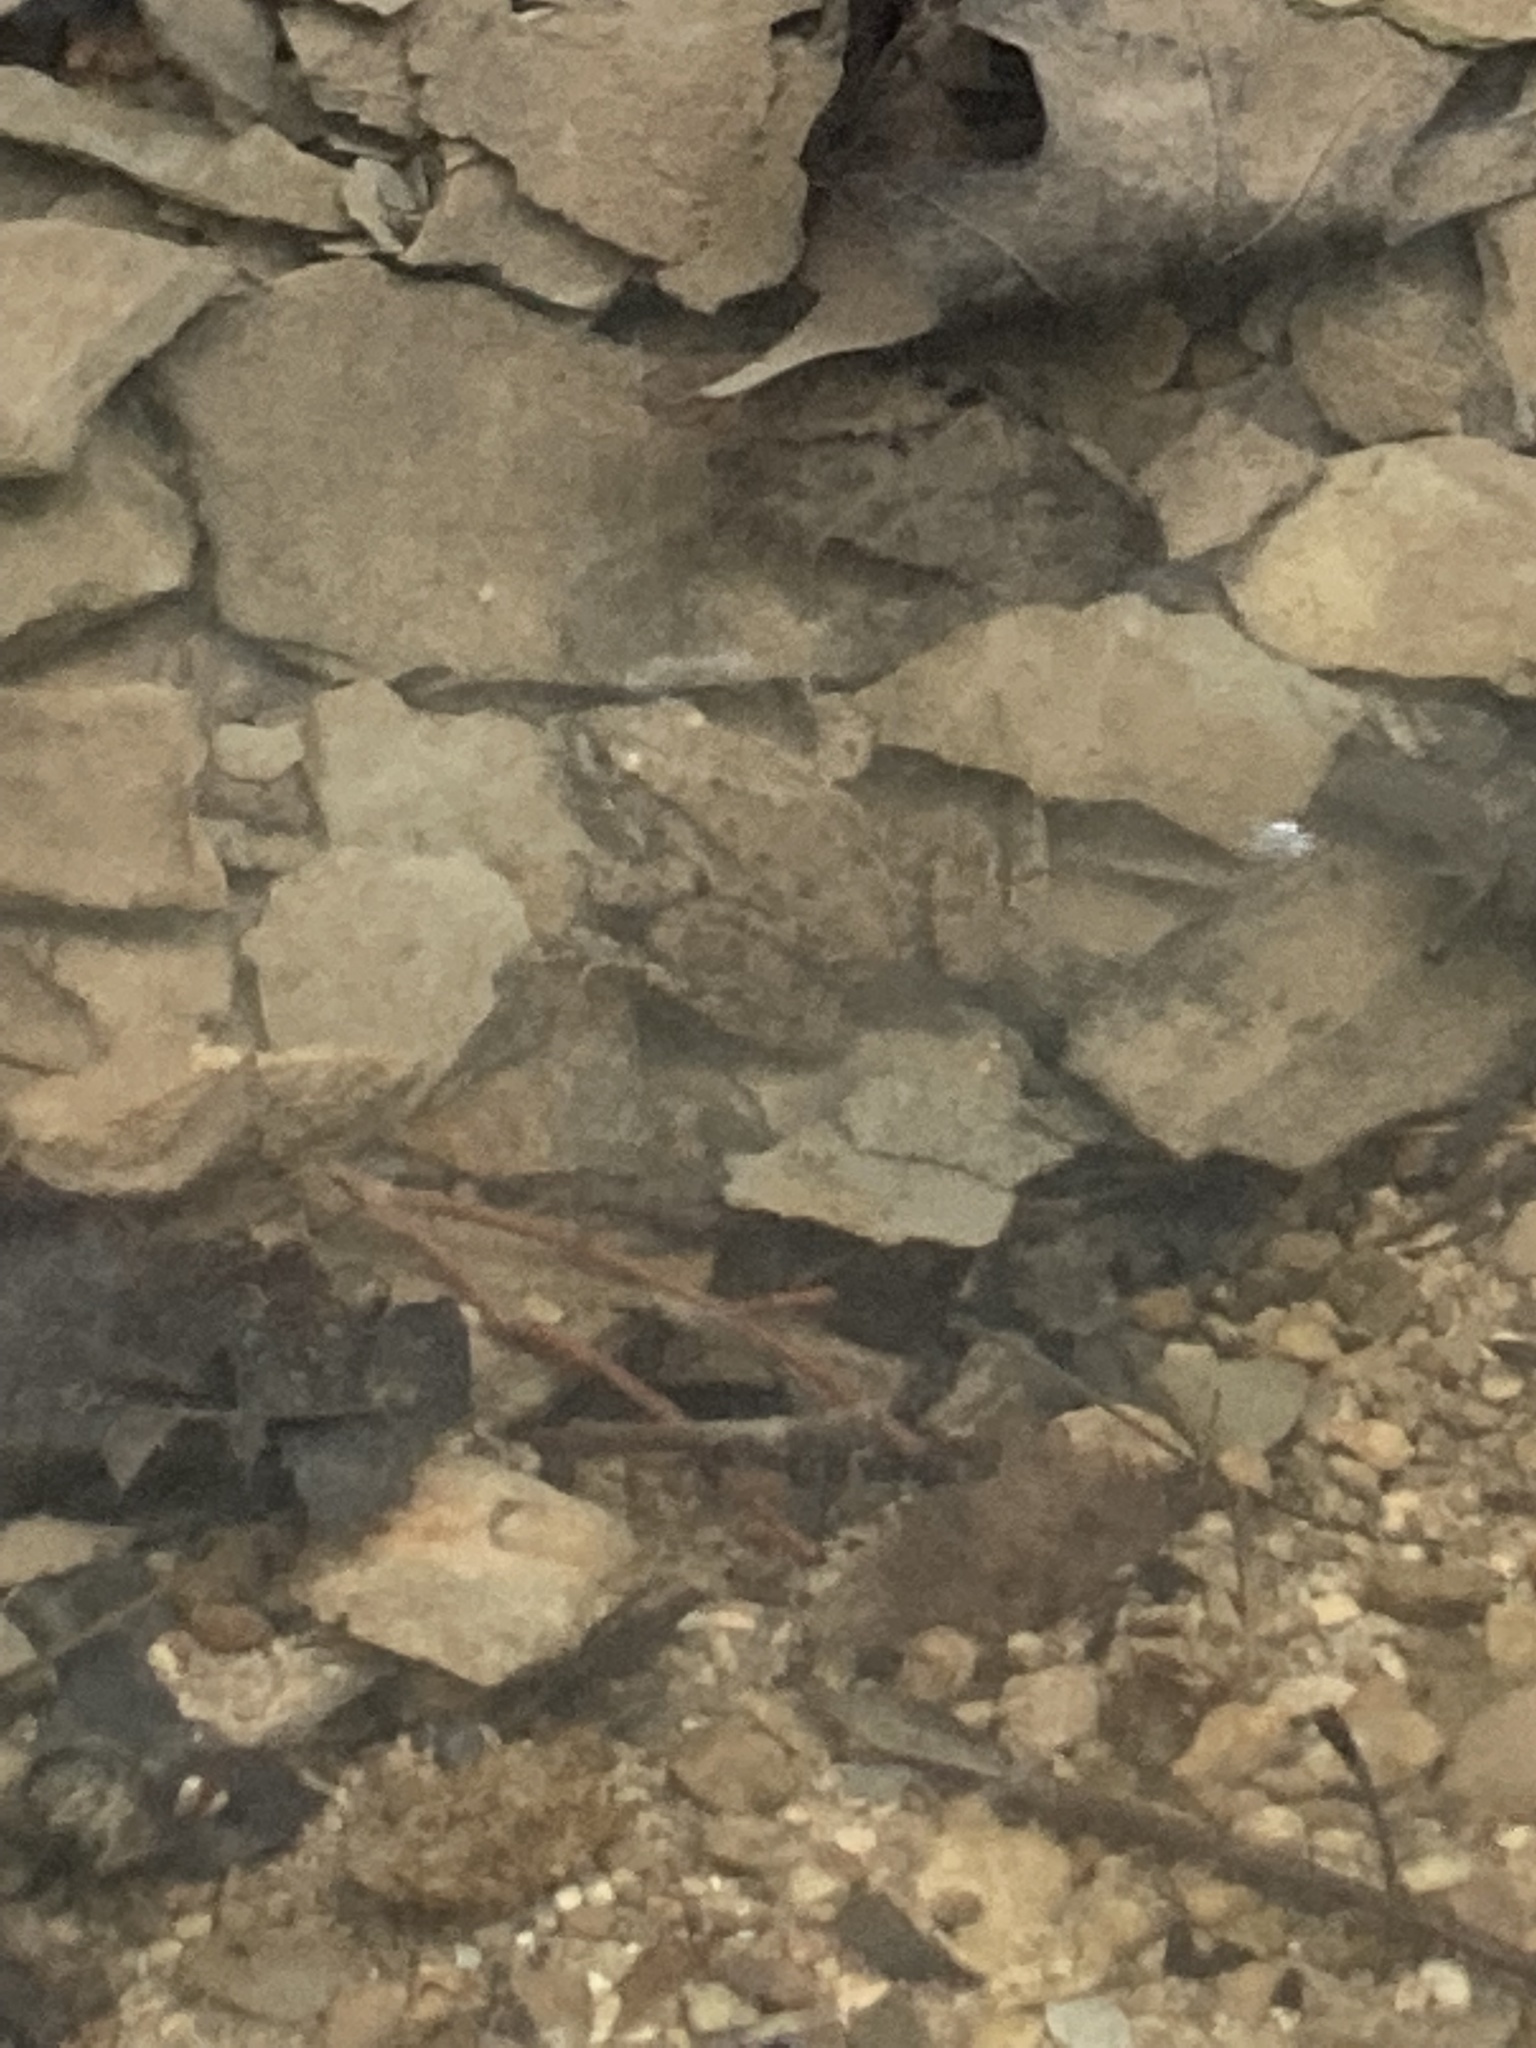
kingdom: Animalia
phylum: Chordata
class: Amphibia
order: Anura
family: Ranidae
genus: Lithobates
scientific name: Lithobates clamitans
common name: Green frog
